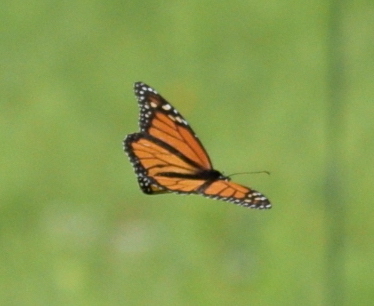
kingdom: Animalia
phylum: Arthropoda
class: Insecta
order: Lepidoptera
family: Nymphalidae
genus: Danaus
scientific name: Danaus plexippus
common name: Monarch
